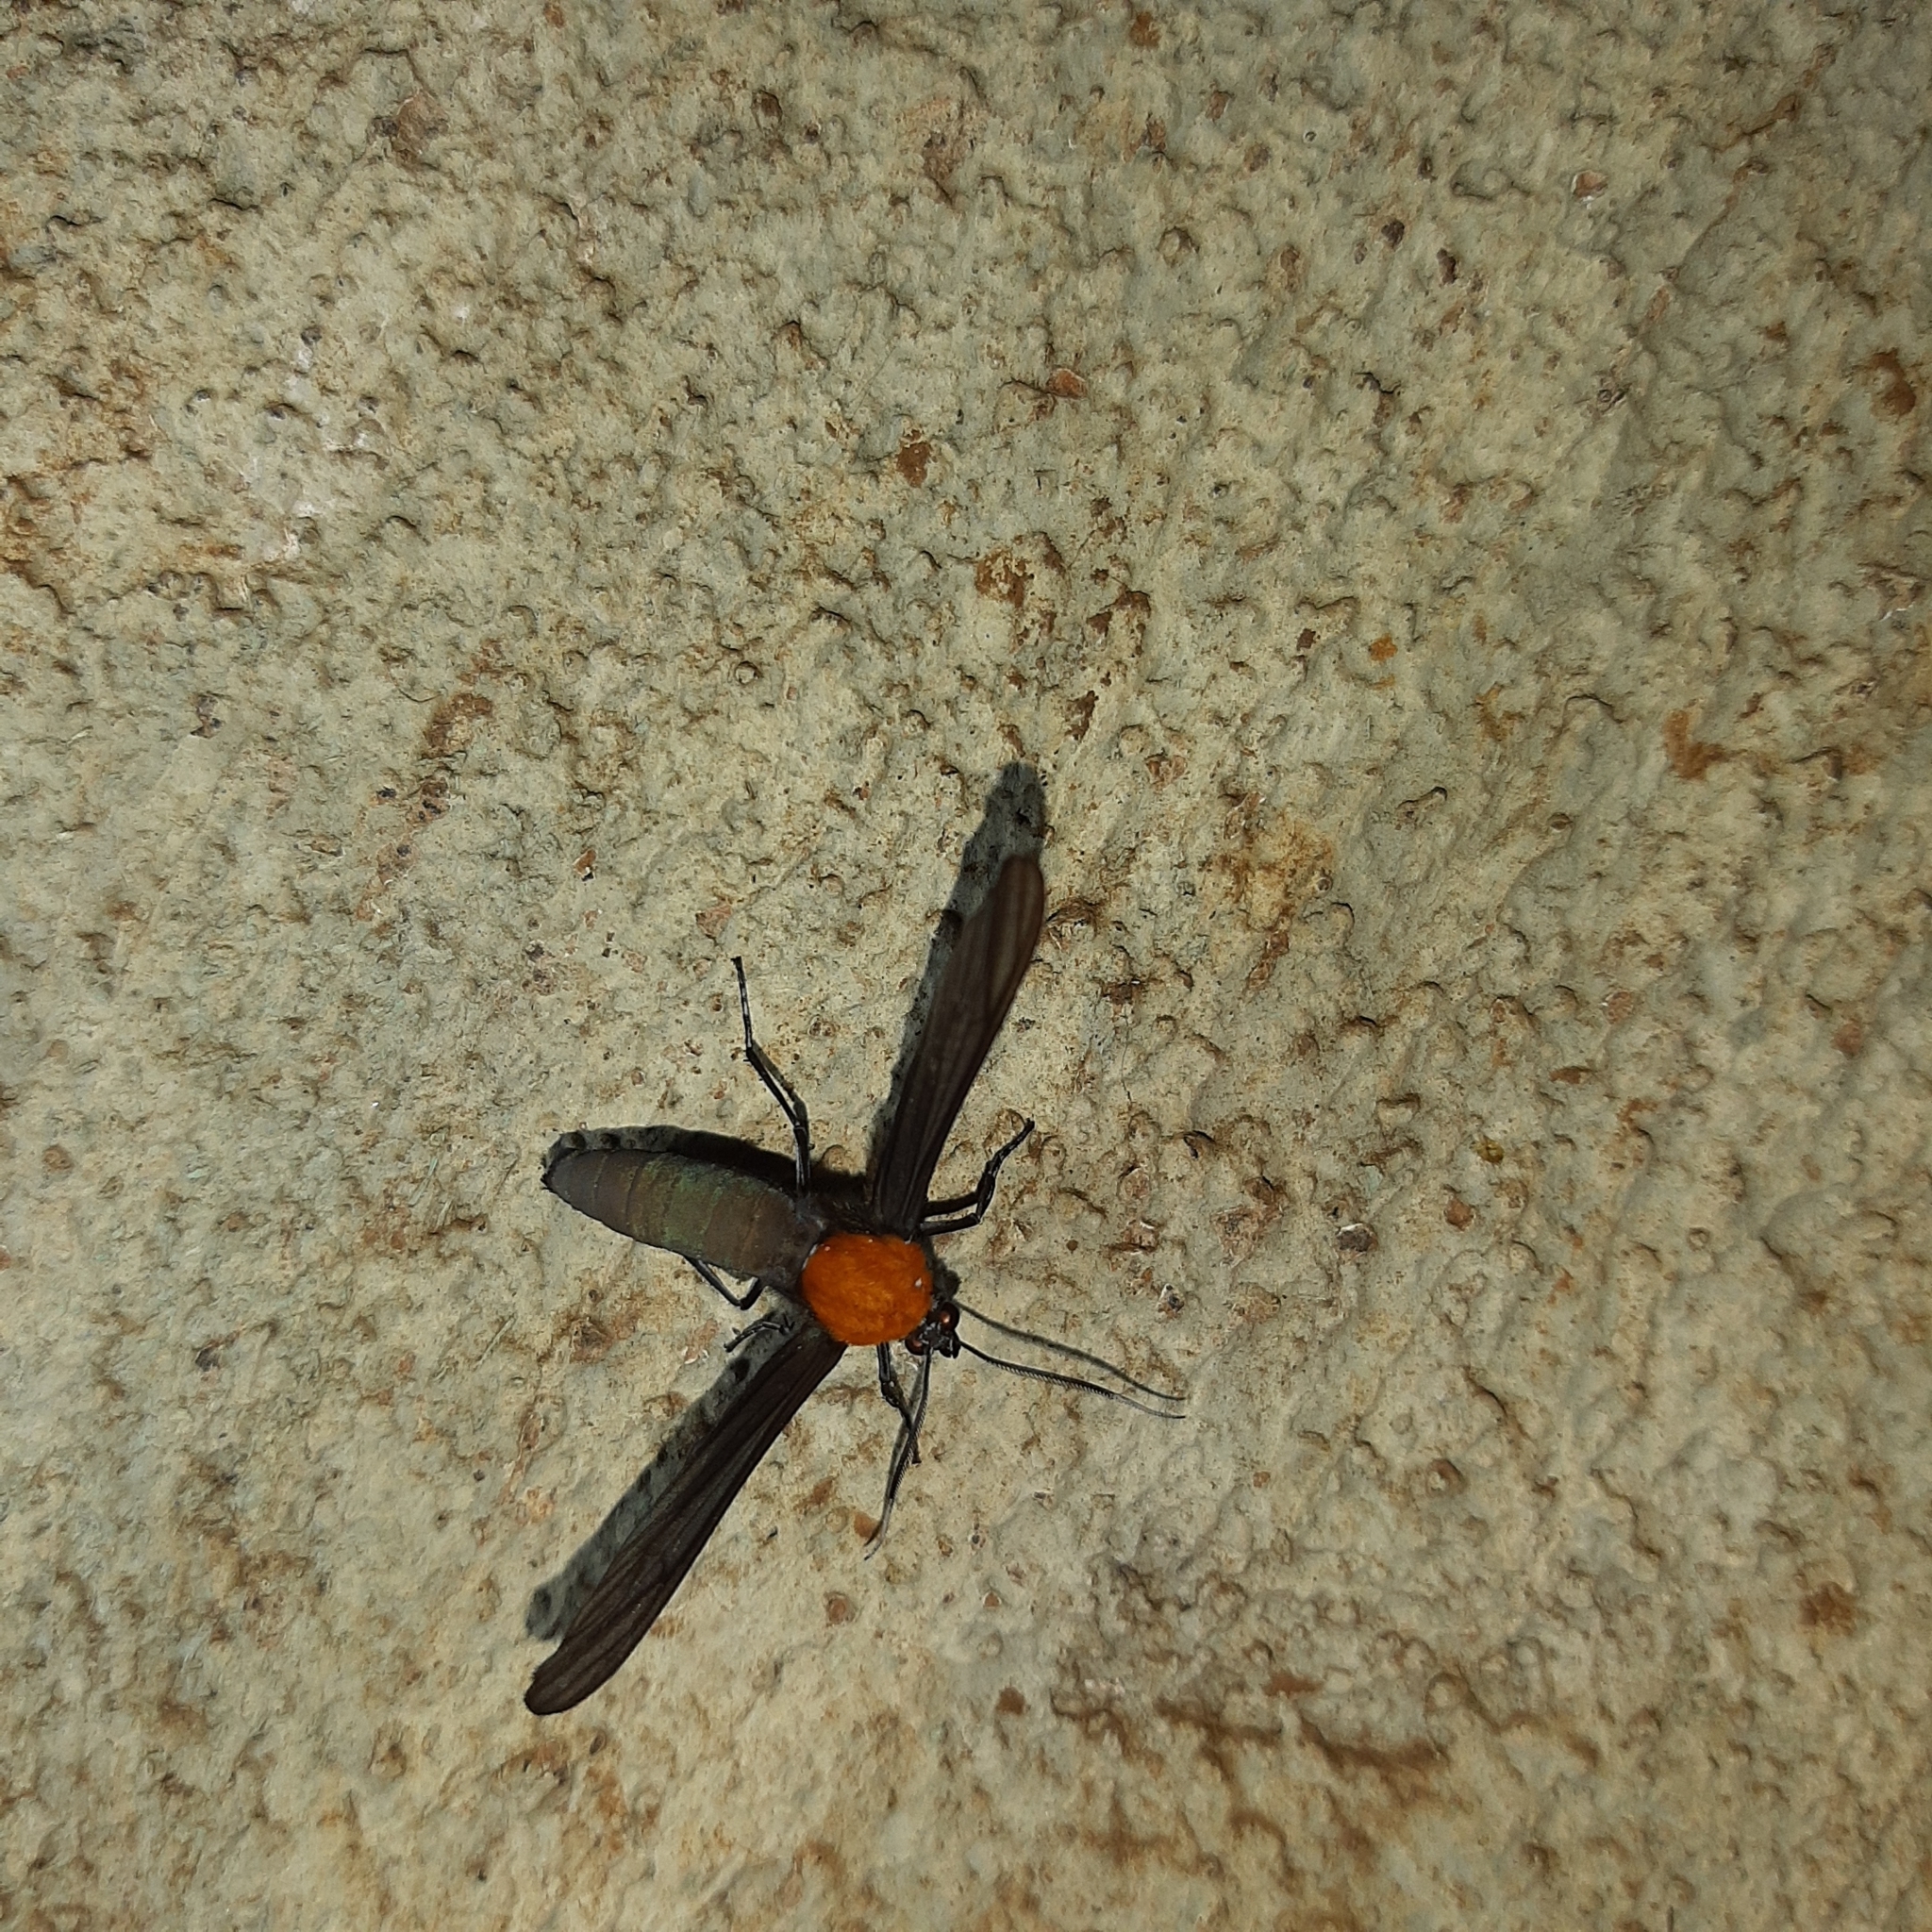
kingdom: Animalia
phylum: Arthropoda
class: Insecta
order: Lepidoptera
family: Erebidae
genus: Scena
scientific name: Scena potentia
